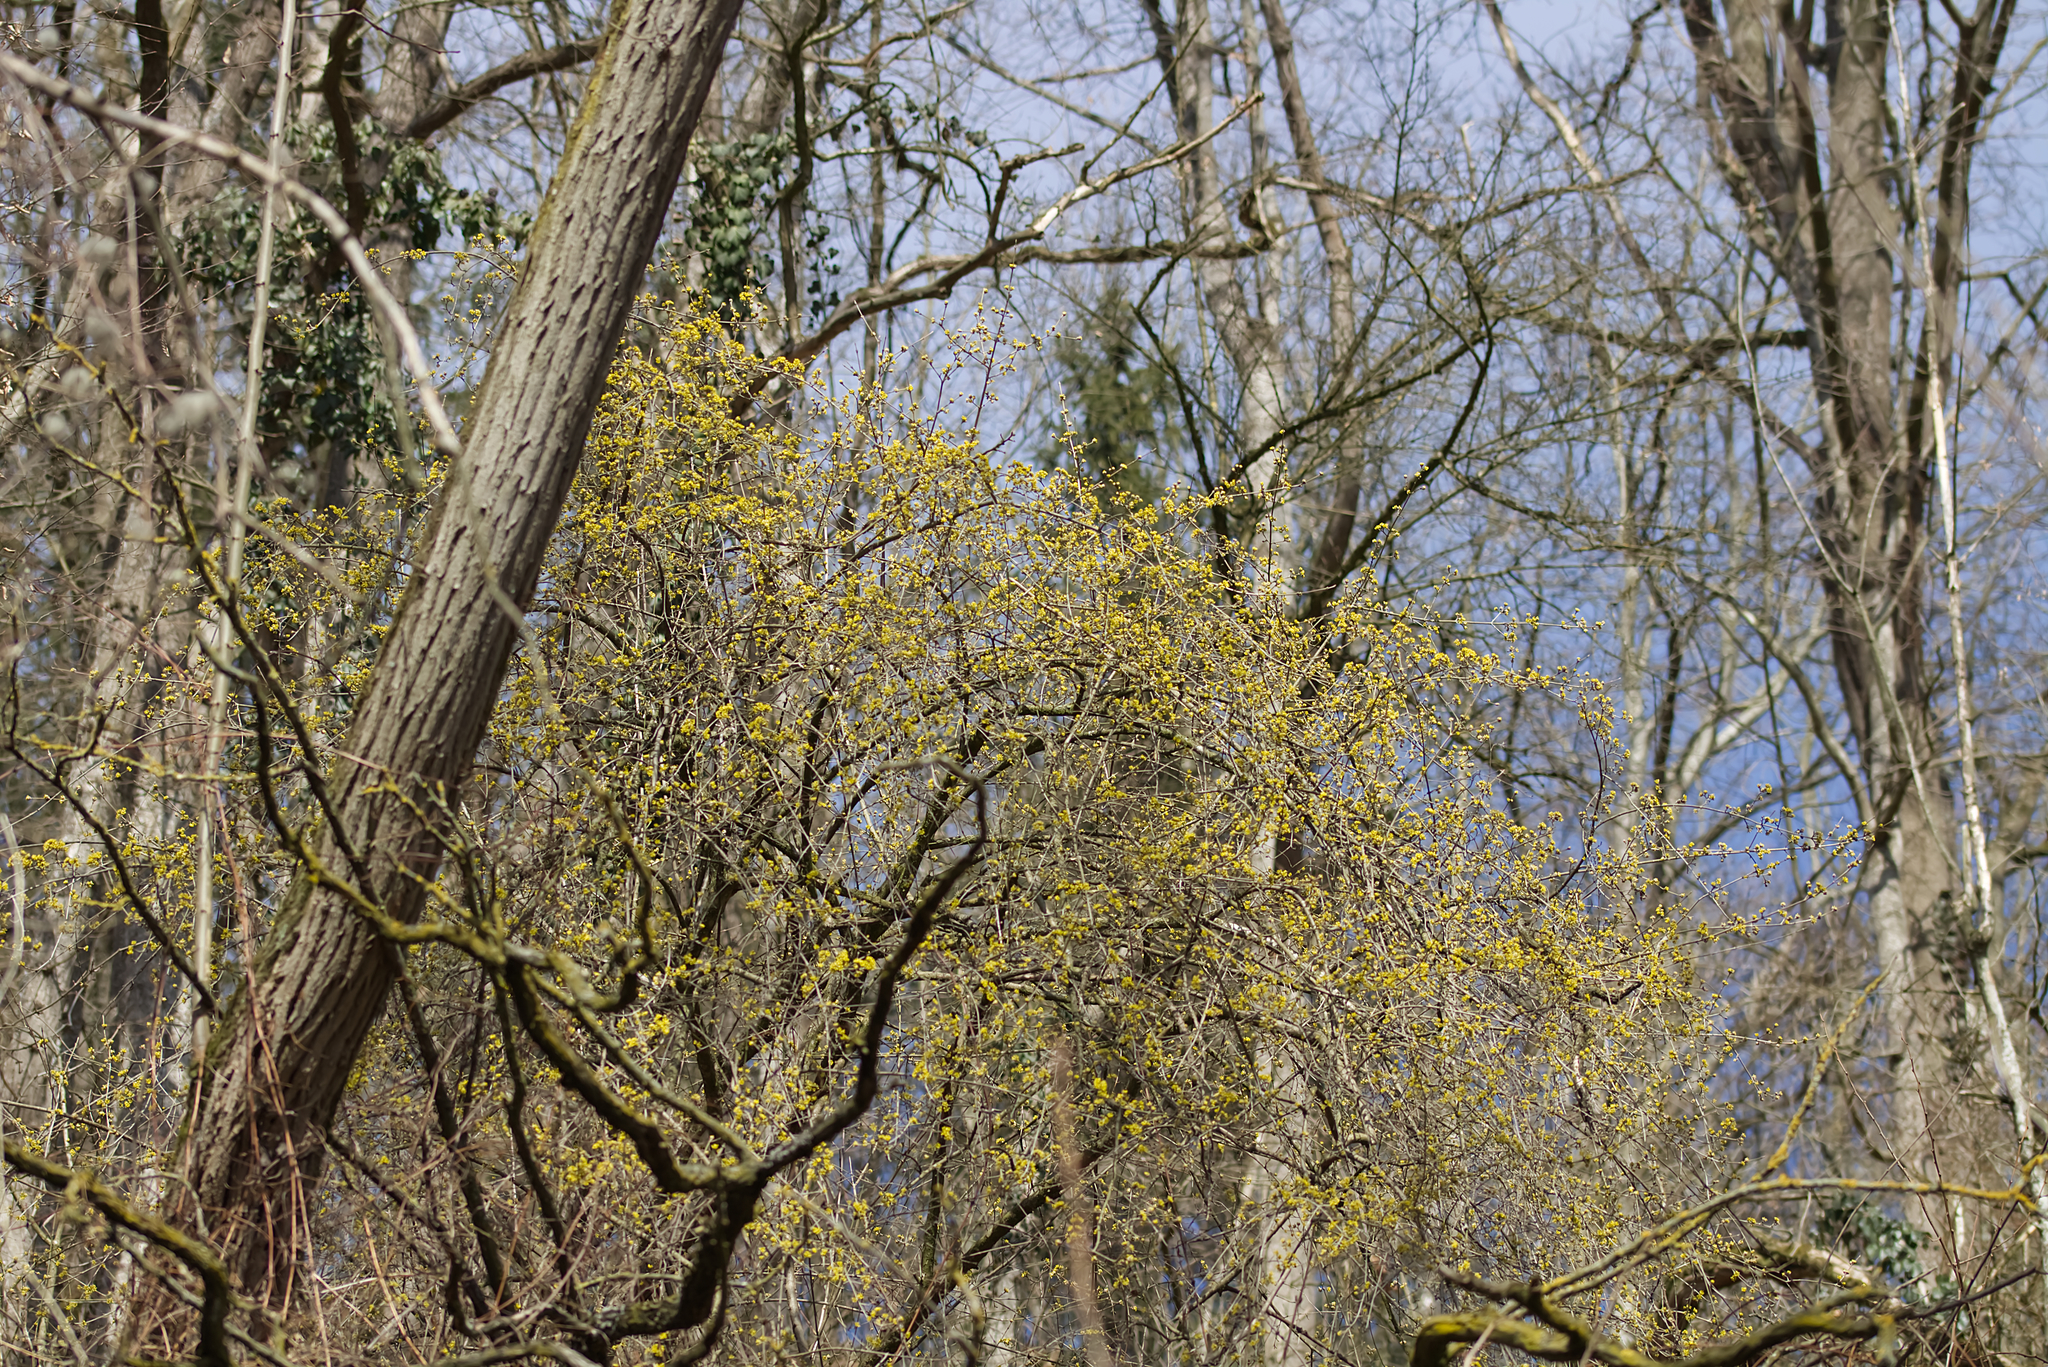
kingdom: Plantae
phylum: Tracheophyta
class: Magnoliopsida
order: Cornales
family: Cornaceae
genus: Cornus
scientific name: Cornus mas
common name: Cornelian-cherry
